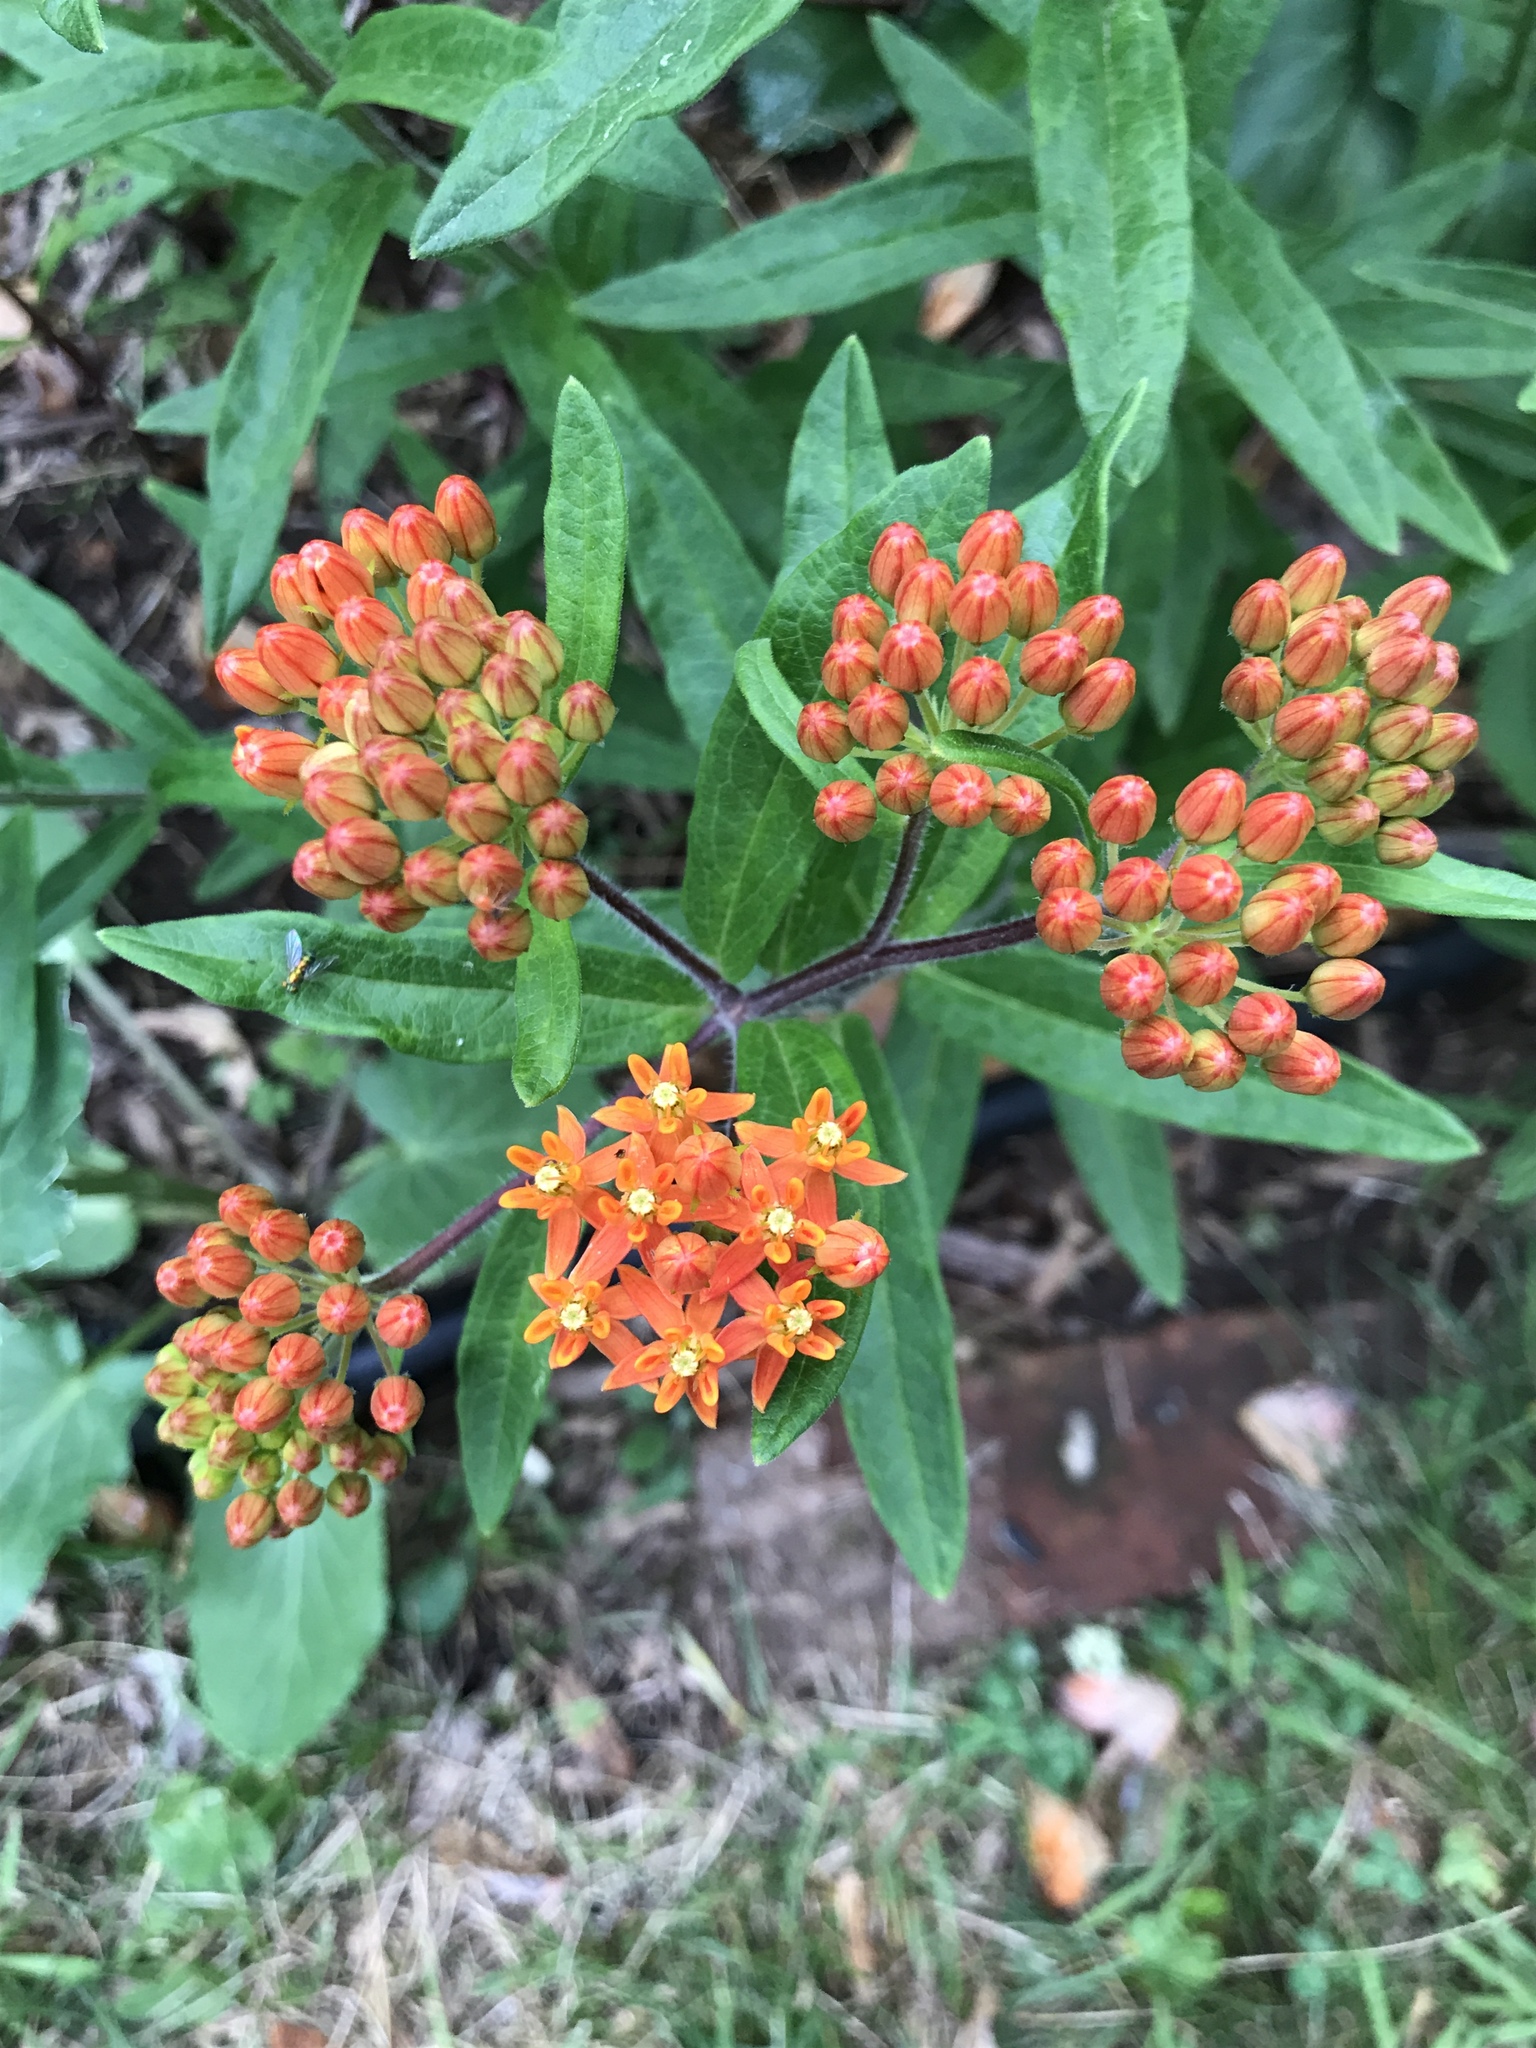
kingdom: Plantae
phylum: Tracheophyta
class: Magnoliopsida
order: Gentianales
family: Apocynaceae
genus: Asclepias
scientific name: Asclepias tuberosa
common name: Butterfly milkweed
